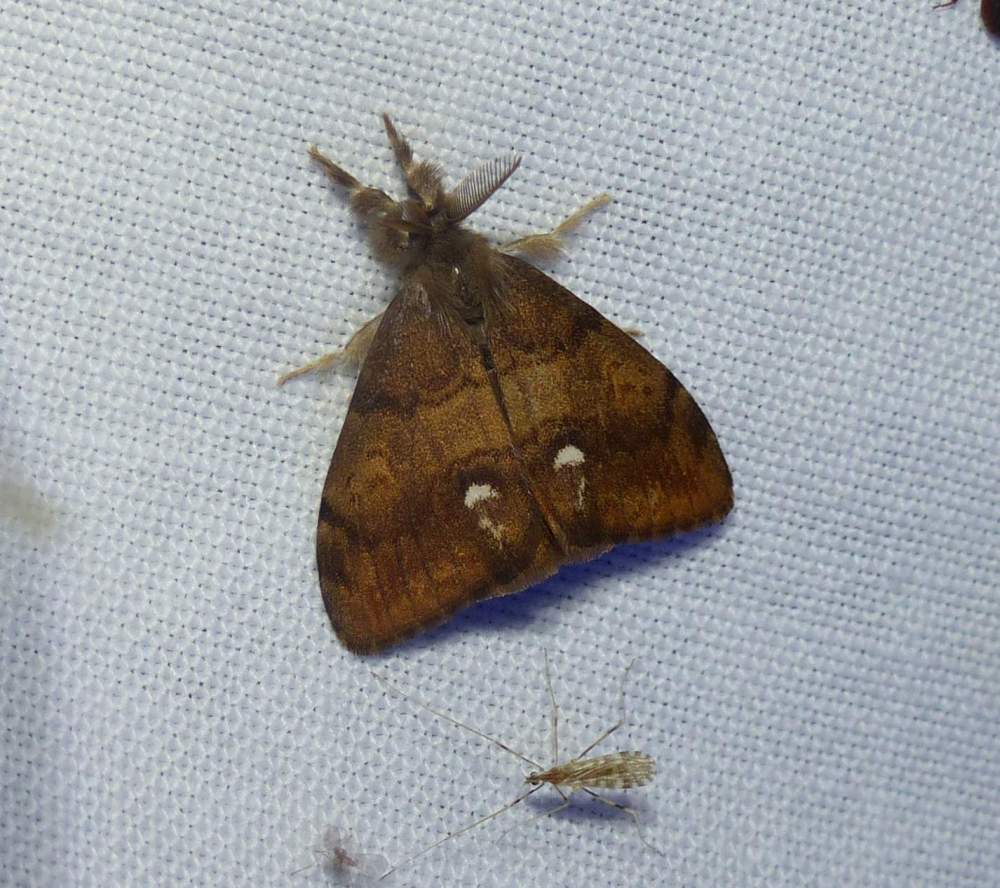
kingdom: Animalia
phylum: Arthropoda
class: Insecta
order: Lepidoptera
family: Erebidae
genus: Orgyia
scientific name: Orgyia antiqua
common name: Vapourer
